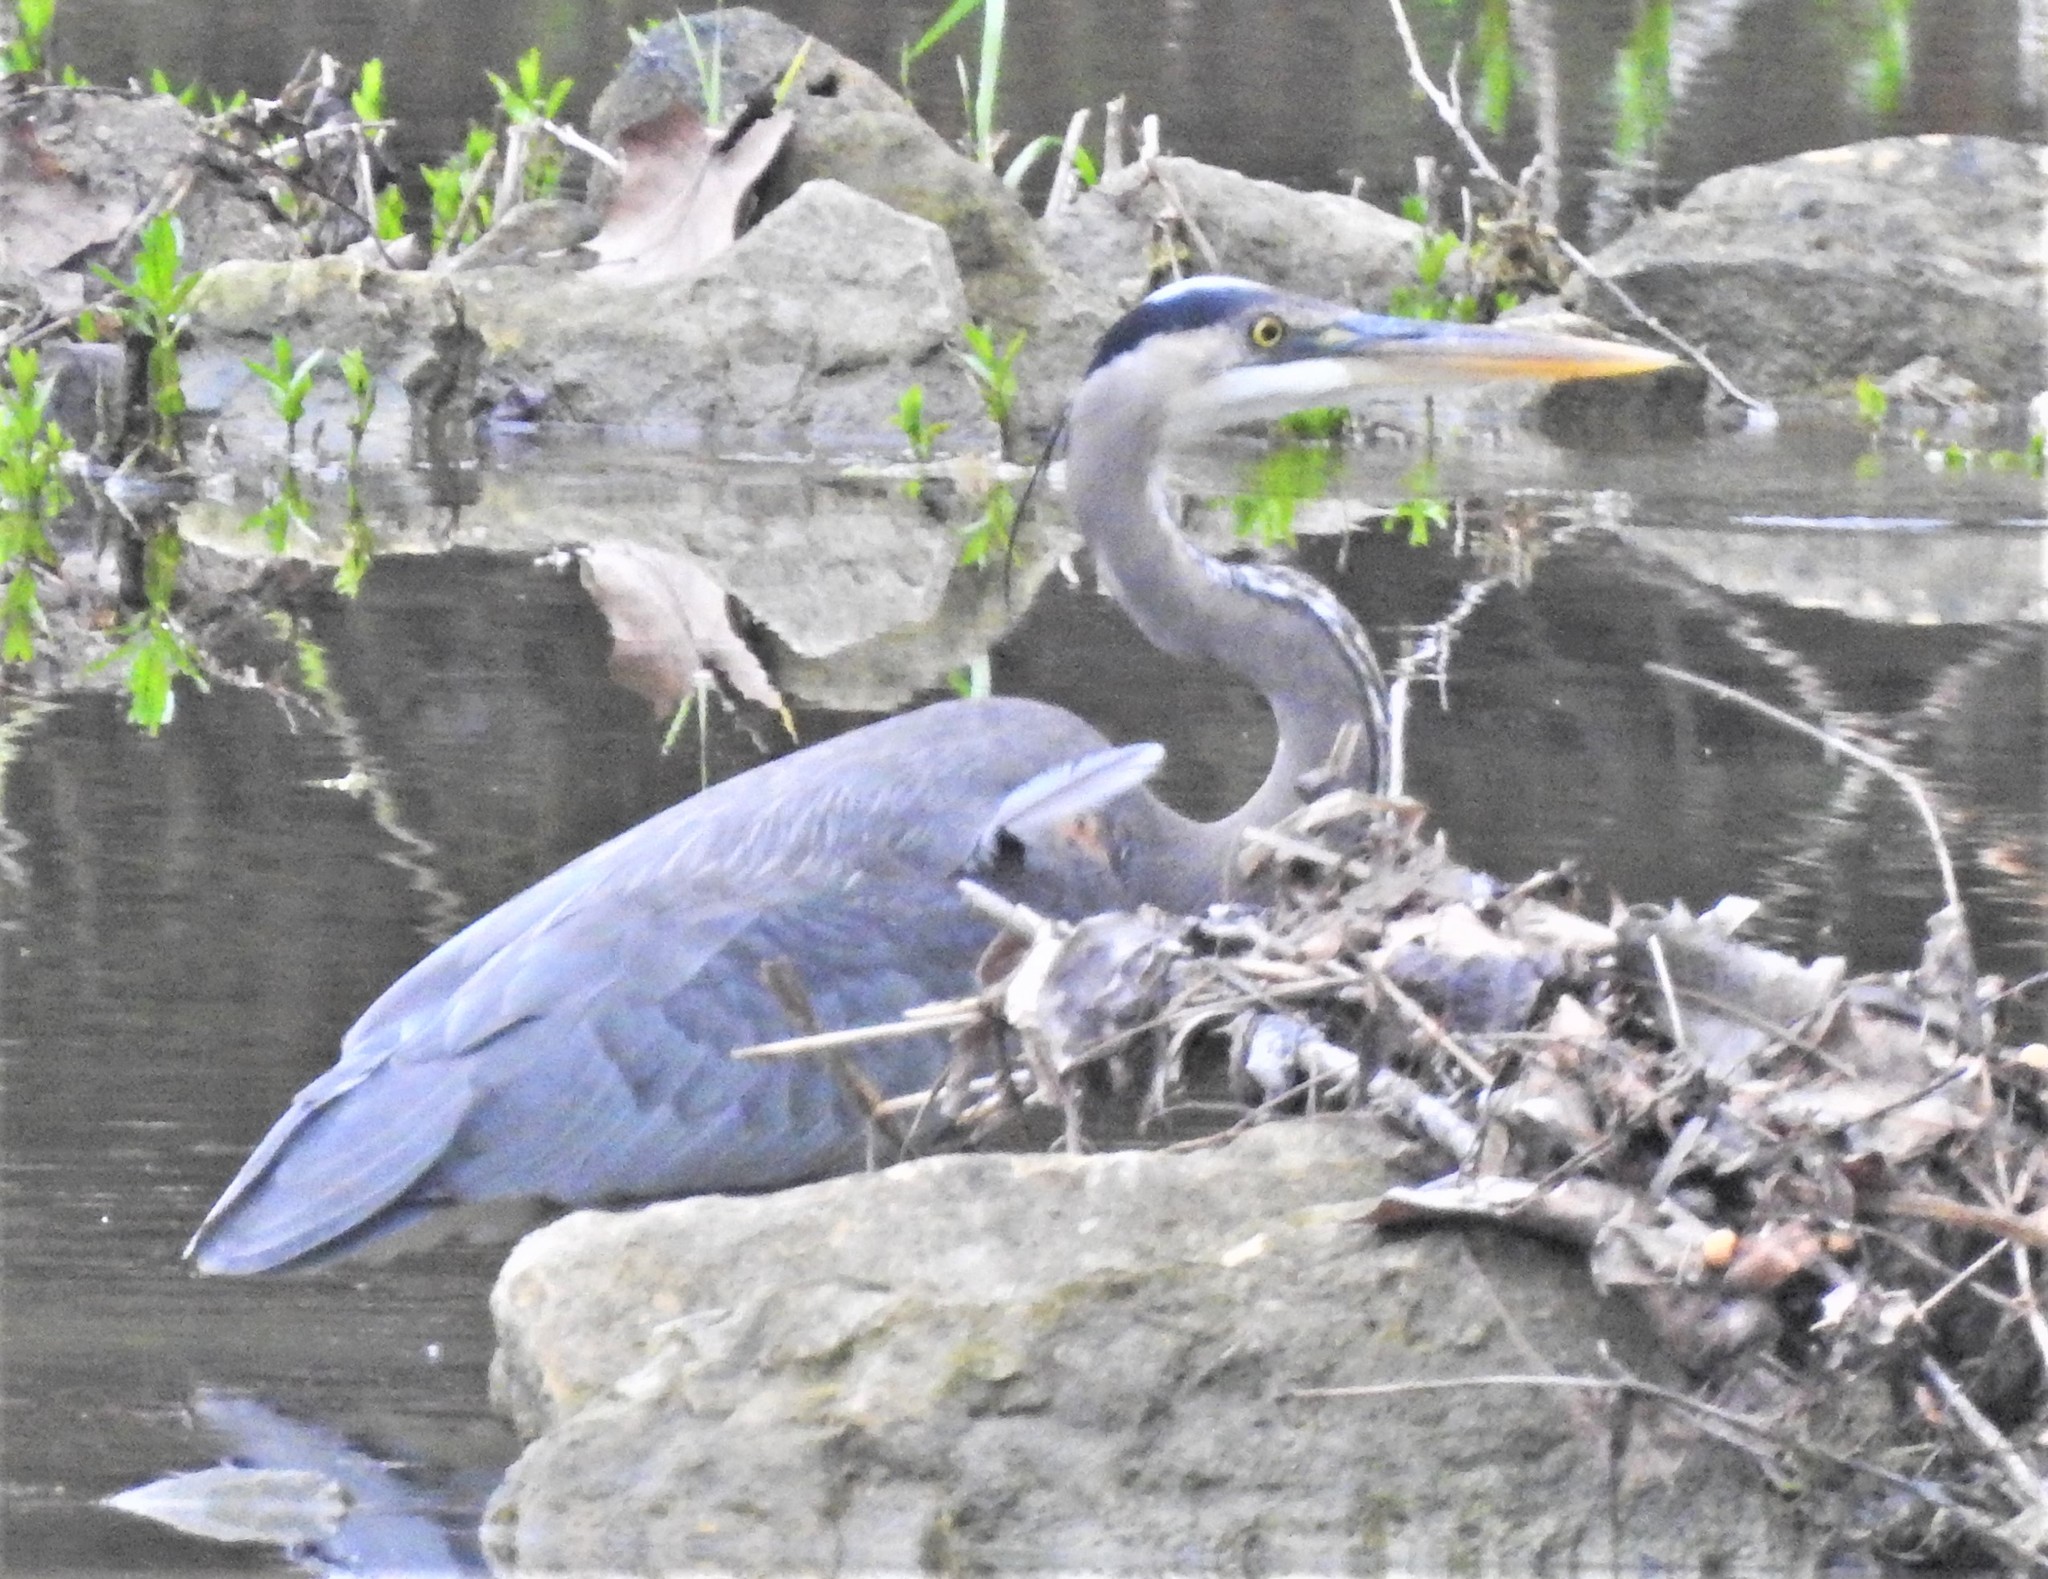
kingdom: Animalia
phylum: Chordata
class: Aves
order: Pelecaniformes
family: Ardeidae
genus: Ardea
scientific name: Ardea herodias
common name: Great blue heron
